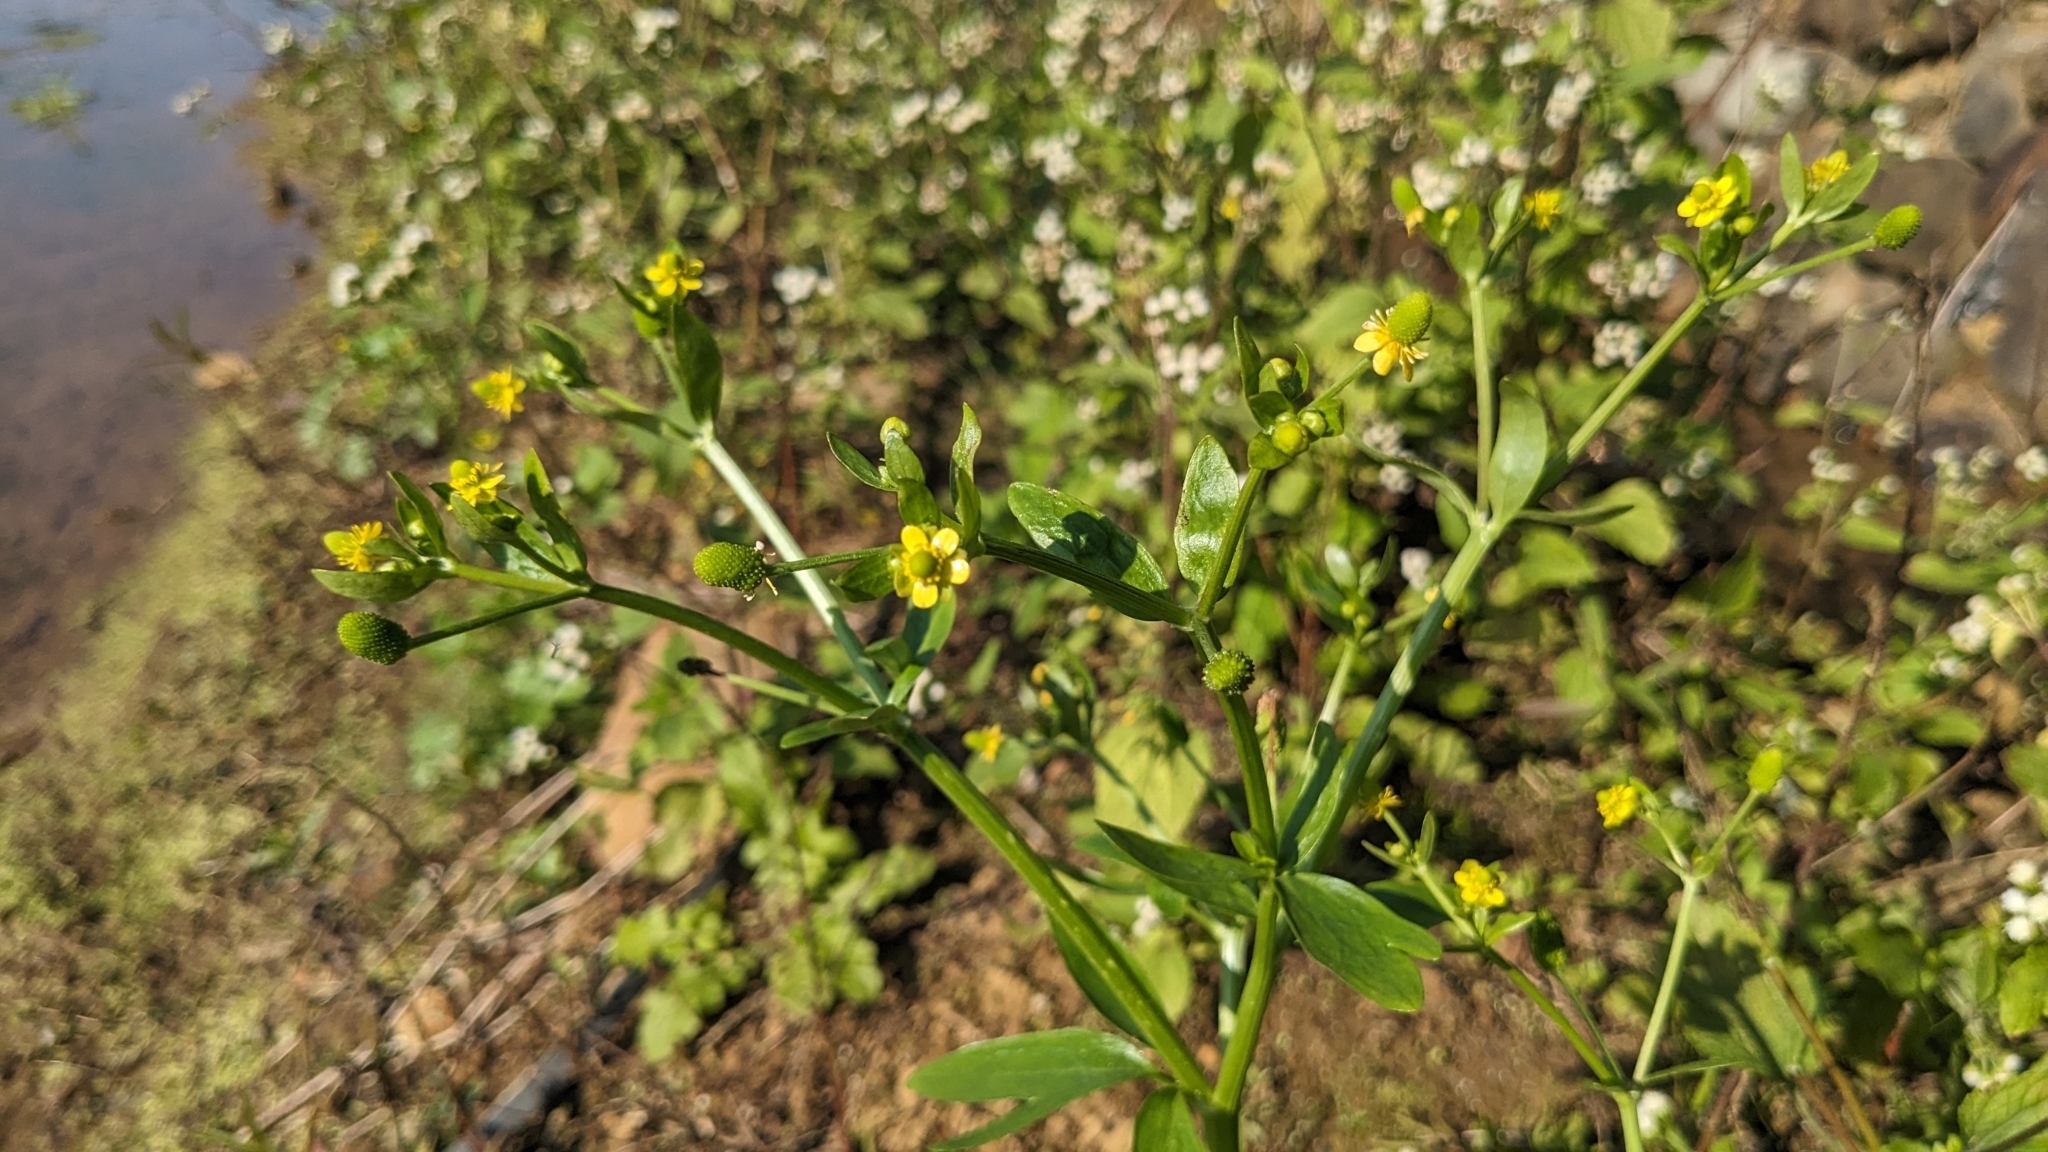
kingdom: Plantae
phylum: Tracheophyta
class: Magnoliopsida
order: Ranunculales
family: Ranunculaceae
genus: Ranunculus
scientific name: Ranunculus sceleratus
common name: Celery-leaved buttercup
